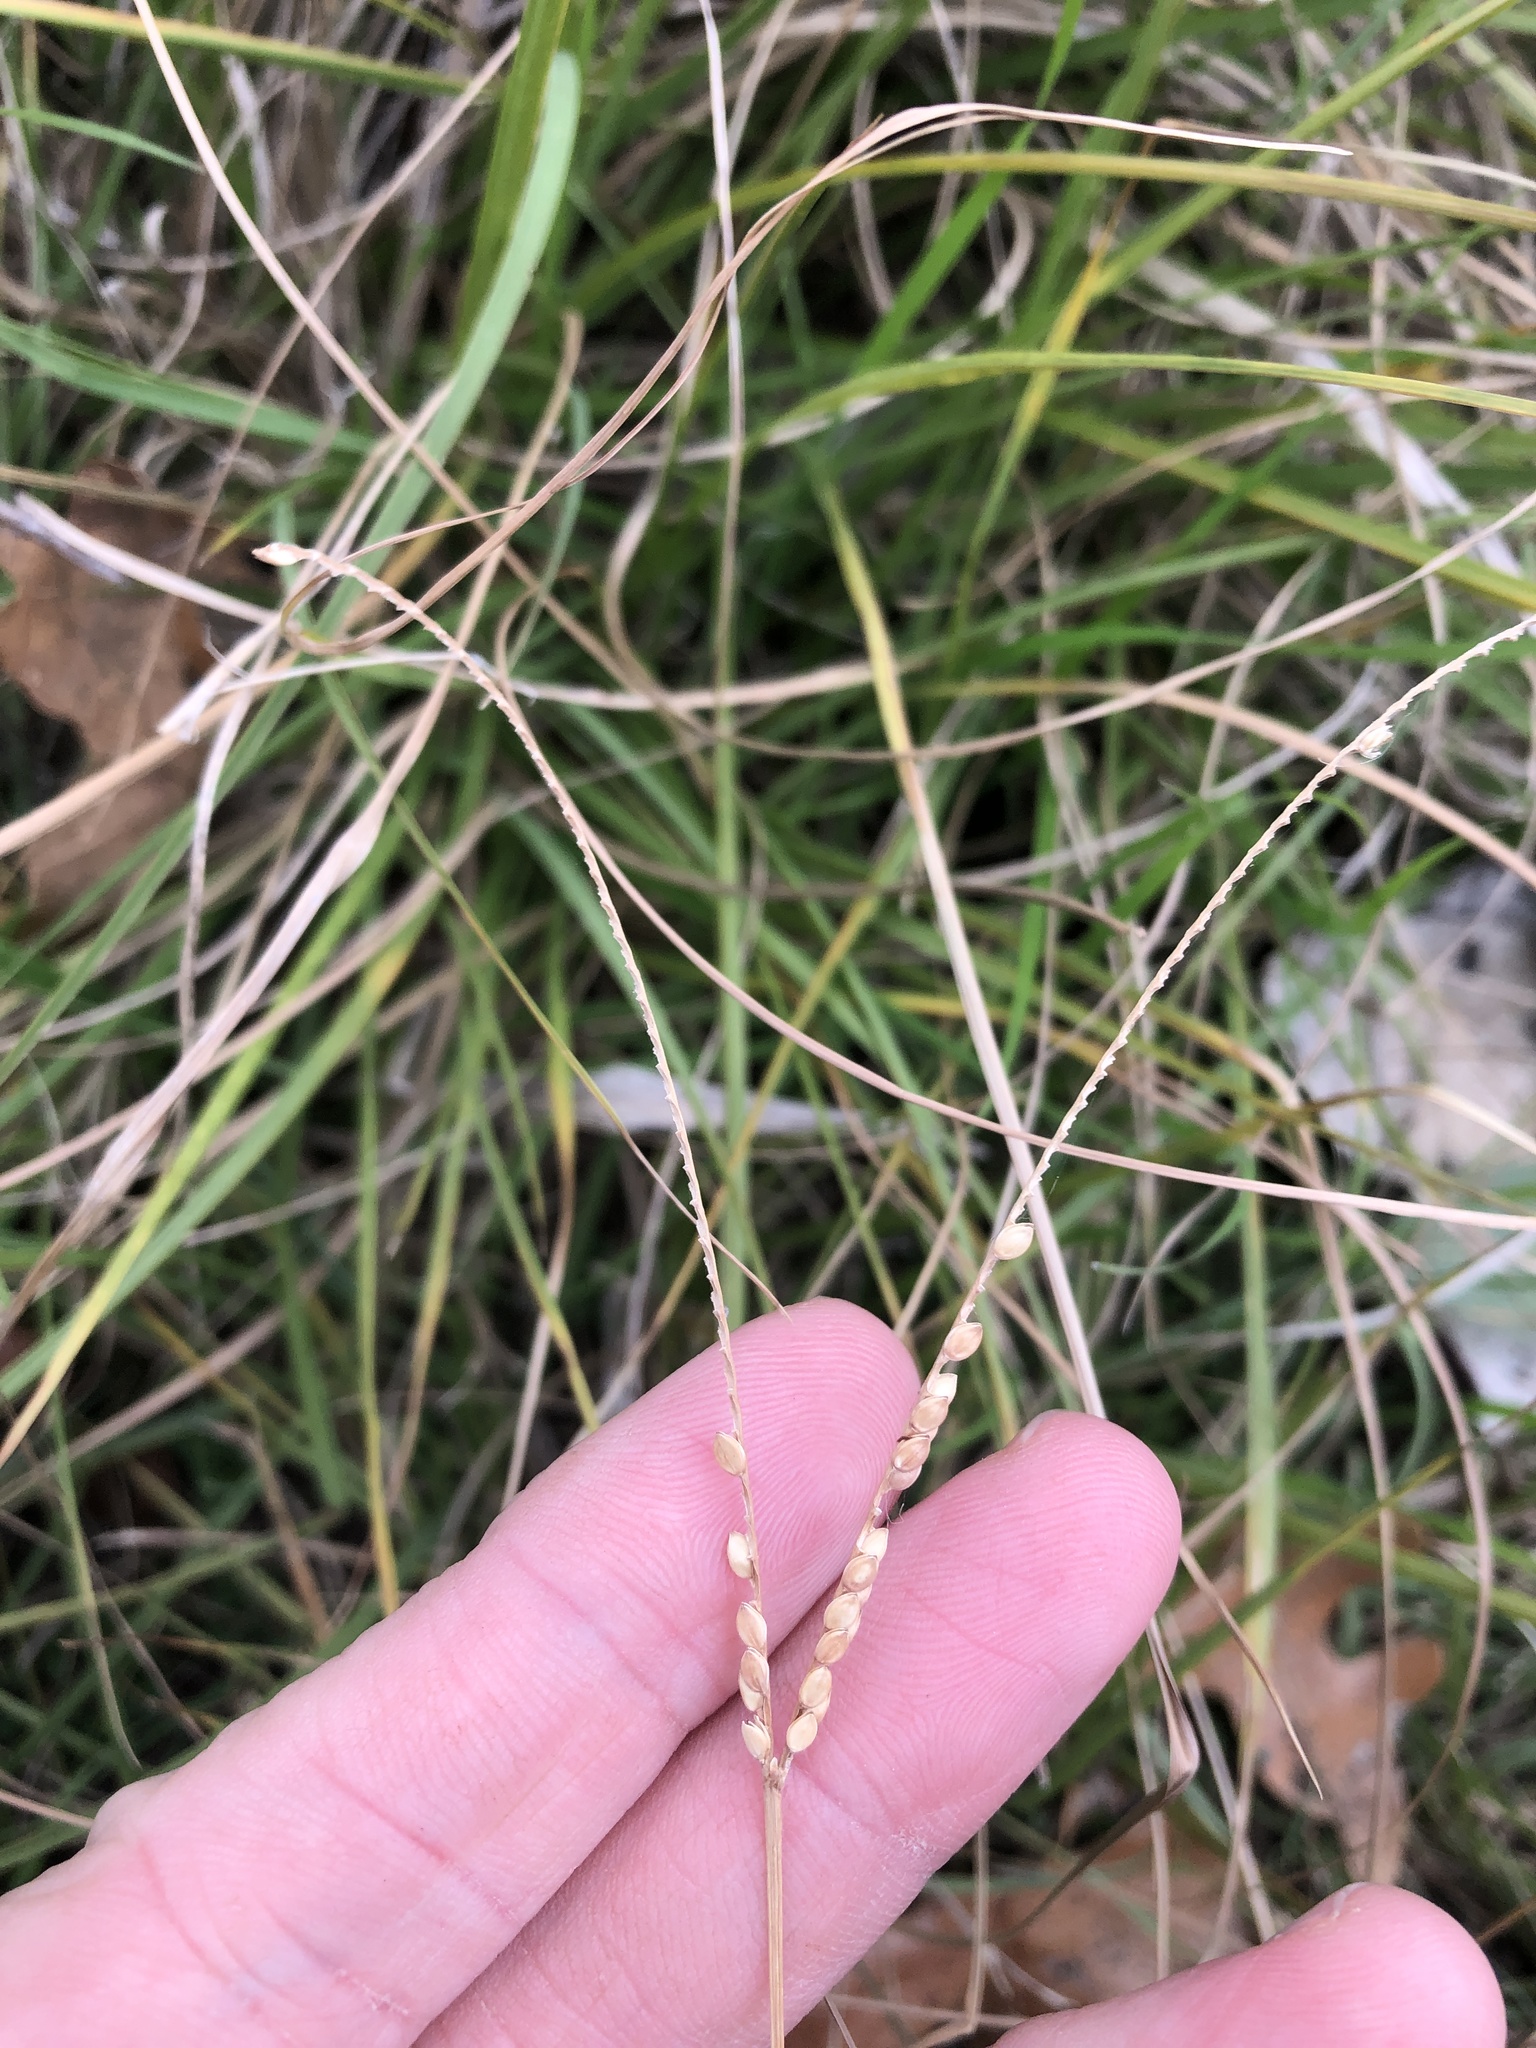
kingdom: Plantae
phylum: Tracheophyta
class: Liliopsida
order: Poales
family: Poaceae
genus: Paspalum
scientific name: Paspalum notatum
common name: Bahiagrass
